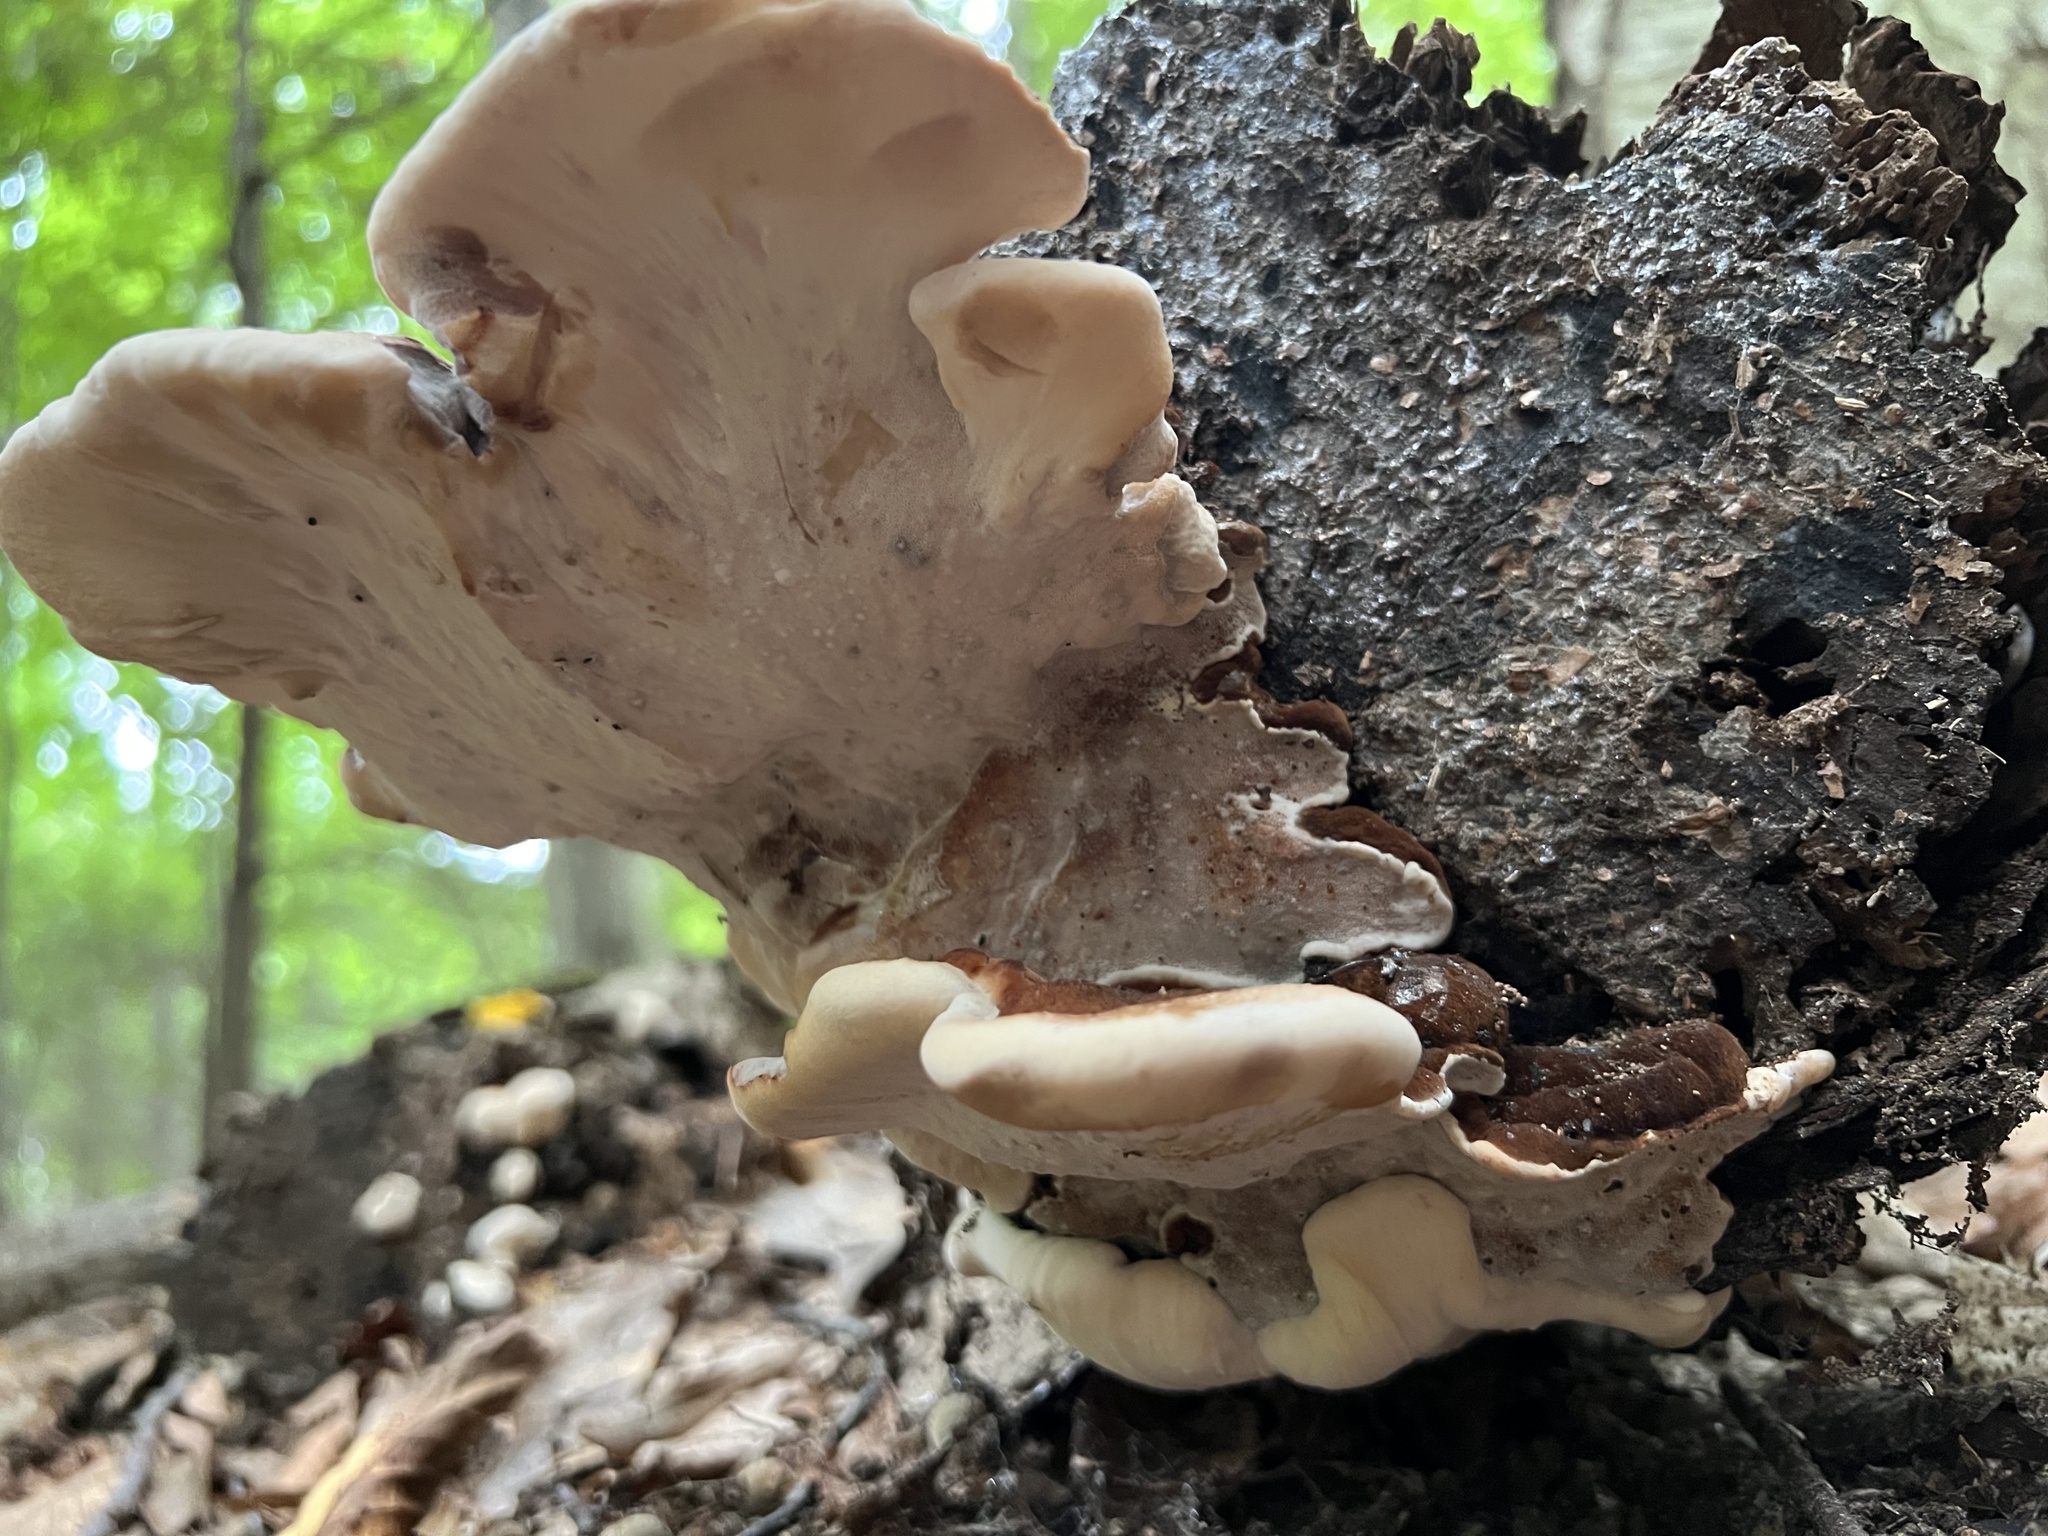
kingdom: Fungi
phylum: Basidiomycota
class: Agaricomycetes
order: Polyporales
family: Ischnodermataceae
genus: Ischnoderma
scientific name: Ischnoderma resinosum
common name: Resinous polypore
